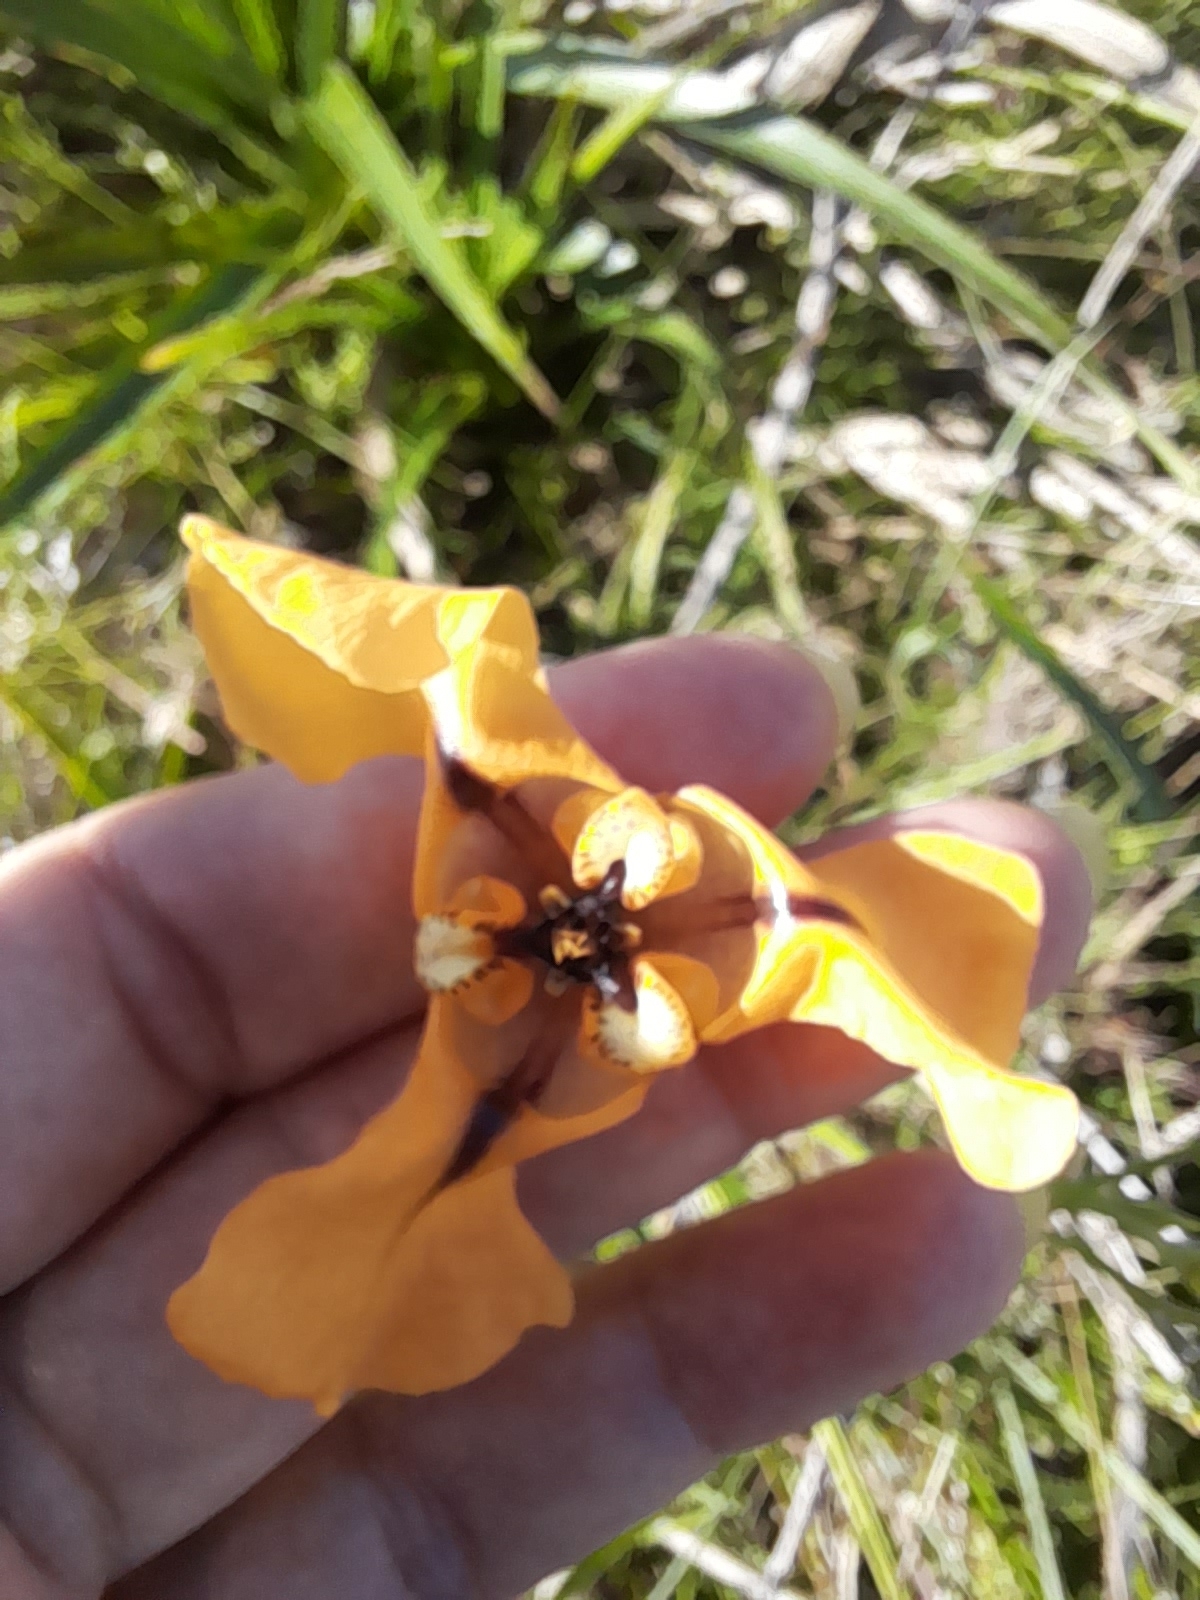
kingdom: Plantae
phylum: Tracheophyta
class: Liliopsida
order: Asparagales
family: Iridaceae
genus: Cypella
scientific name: Cypella herbertii
